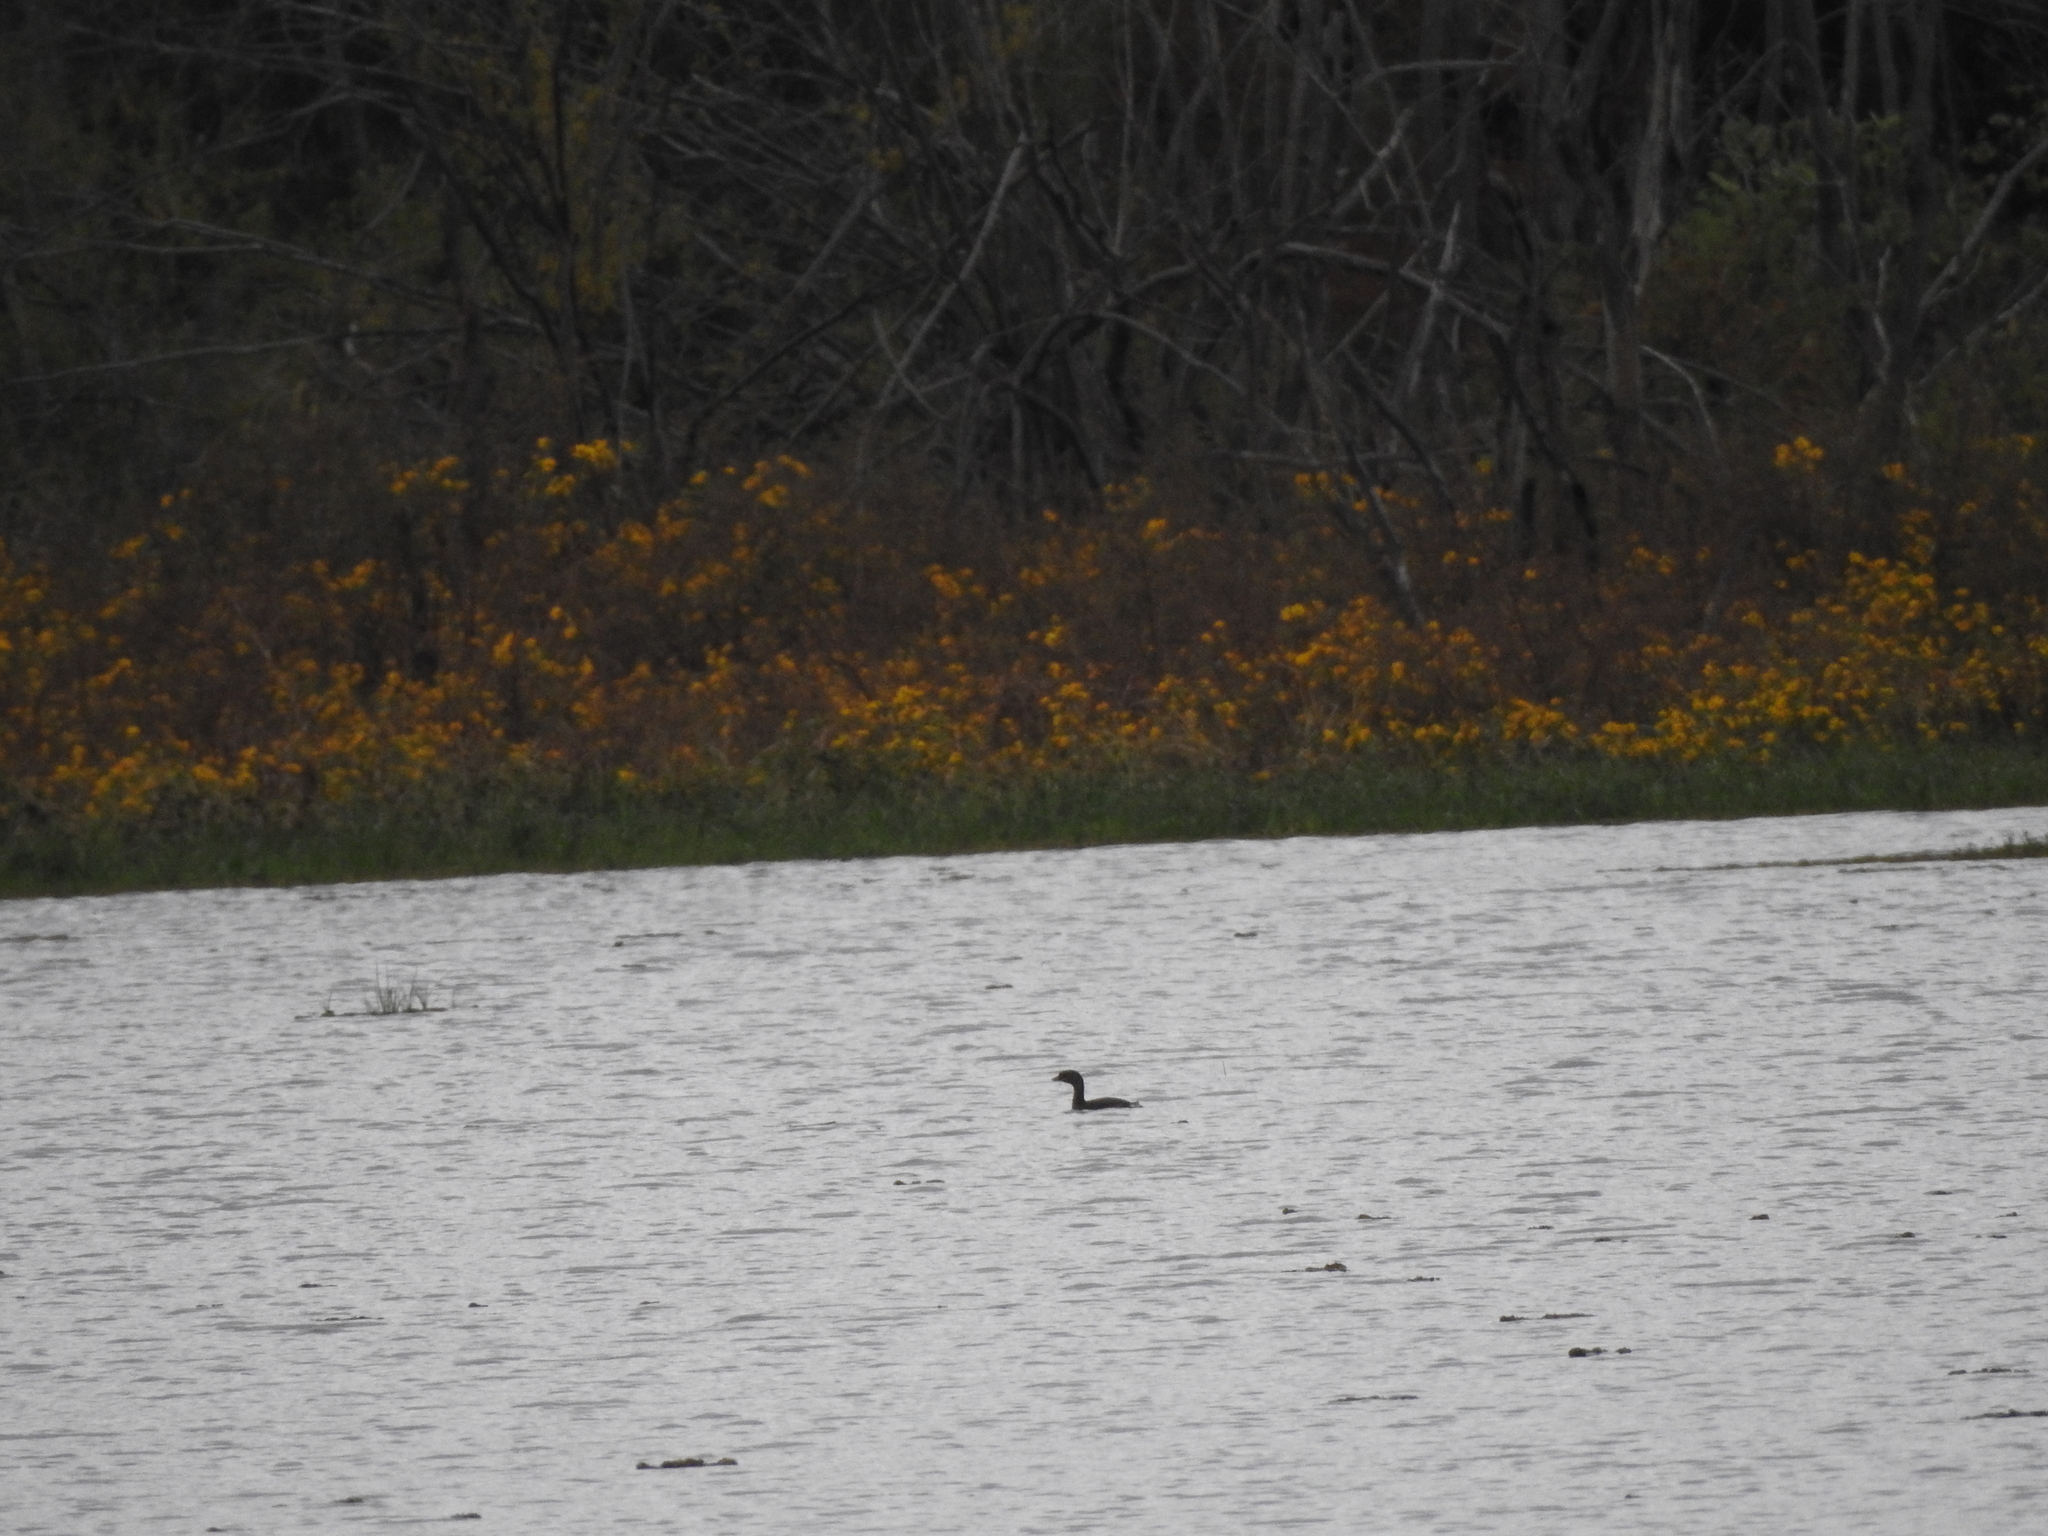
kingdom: Animalia
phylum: Chordata
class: Aves
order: Podicipediformes
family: Podicipedidae
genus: Podilymbus
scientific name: Podilymbus podiceps
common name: Pied-billed grebe
